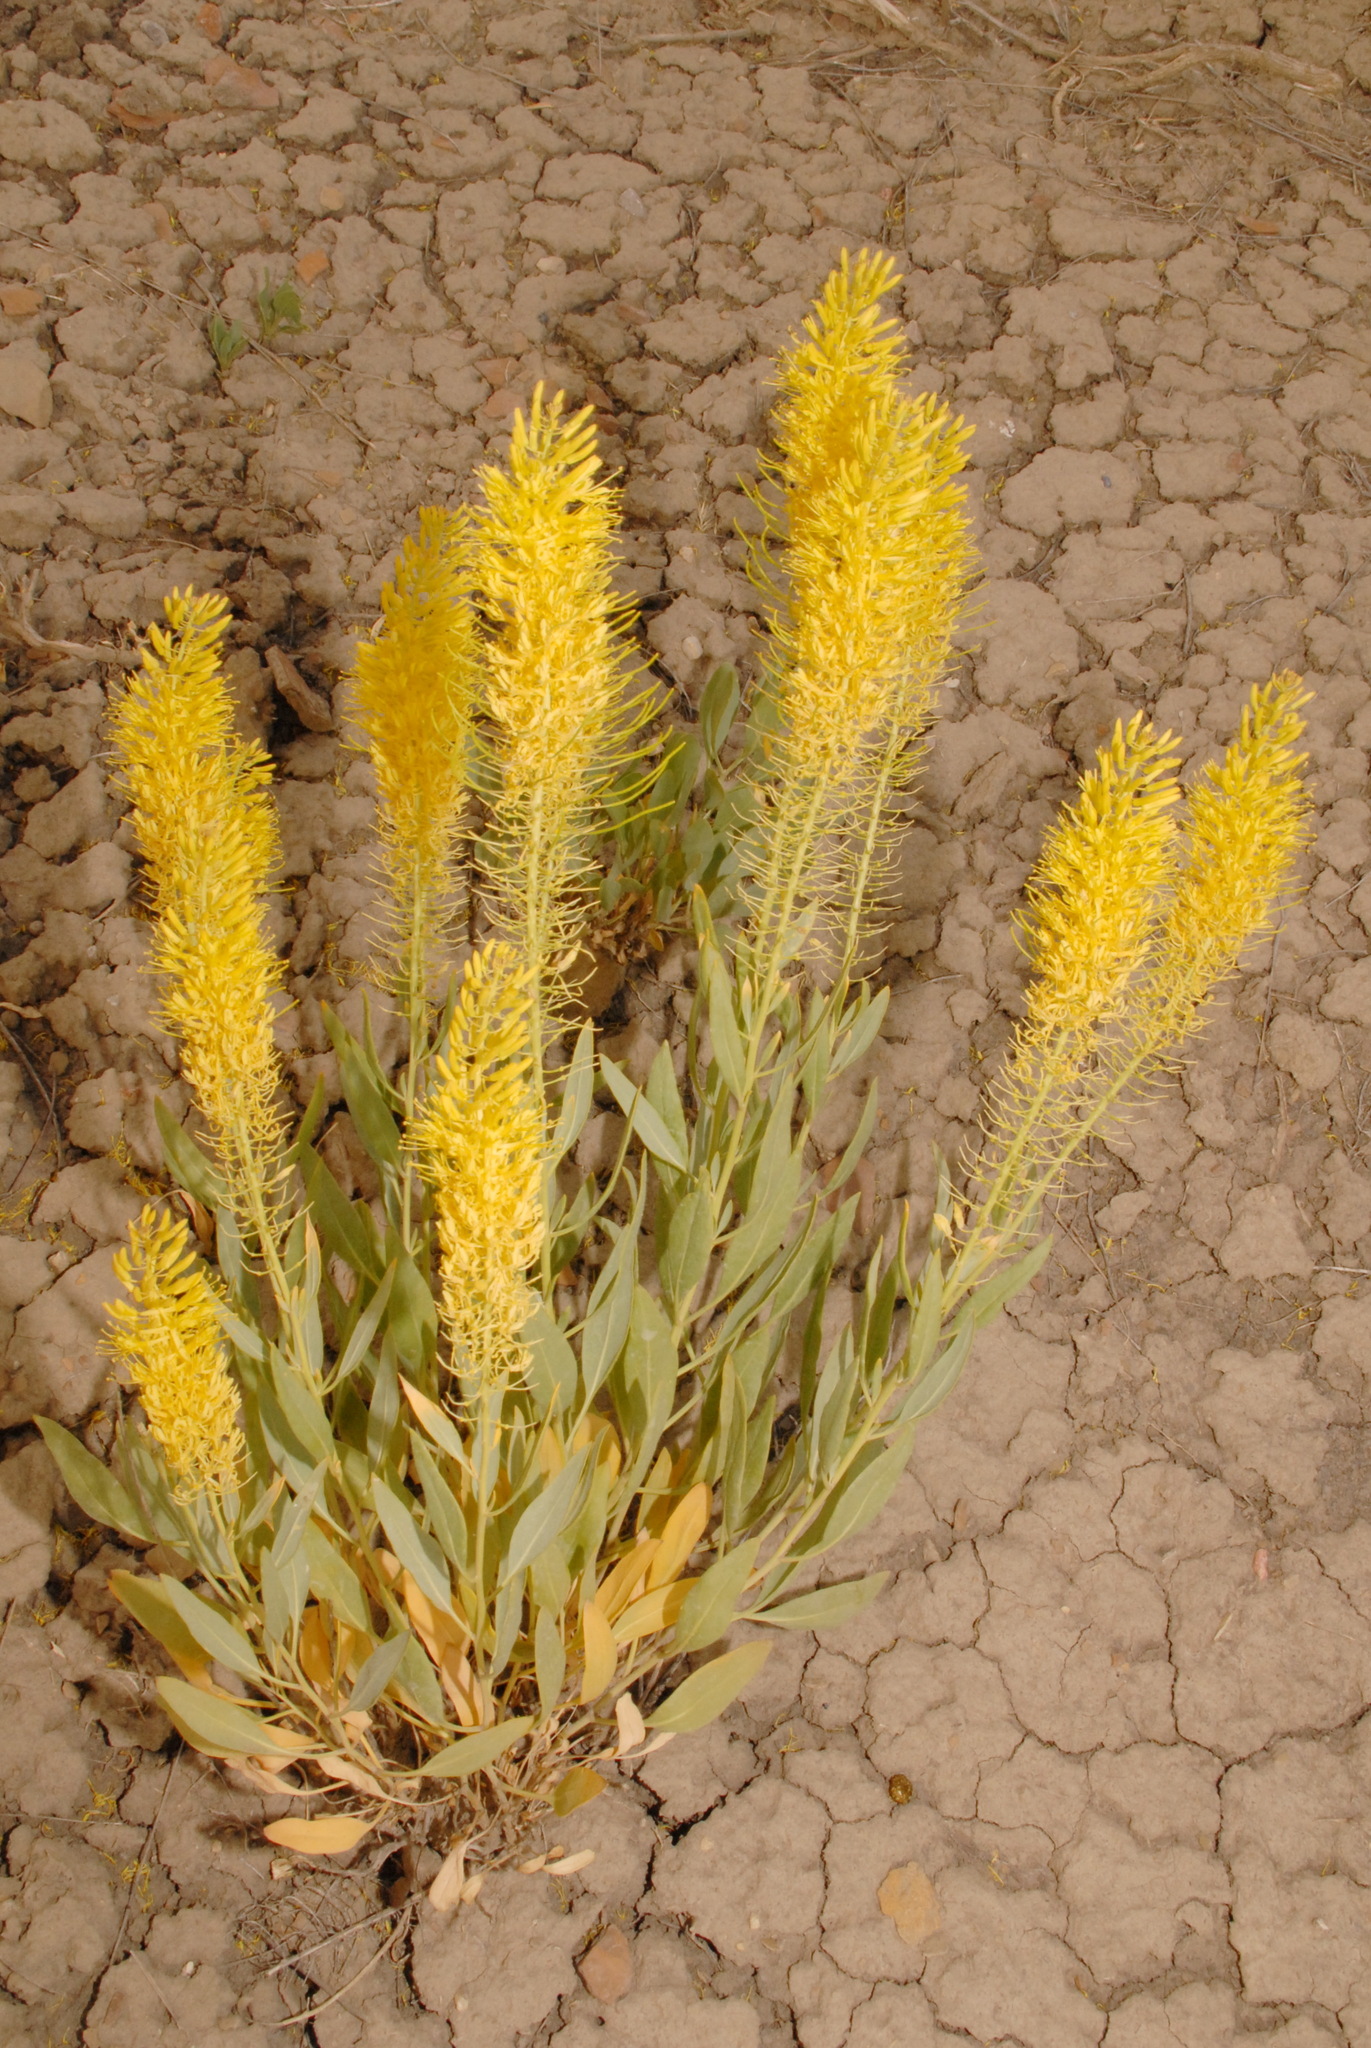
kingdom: Plantae
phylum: Tracheophyta
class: Magnoliopsida
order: Brassicales
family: Brassicaceae
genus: Stanleya
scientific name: Stanleya pinnata
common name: Prince's-plume
